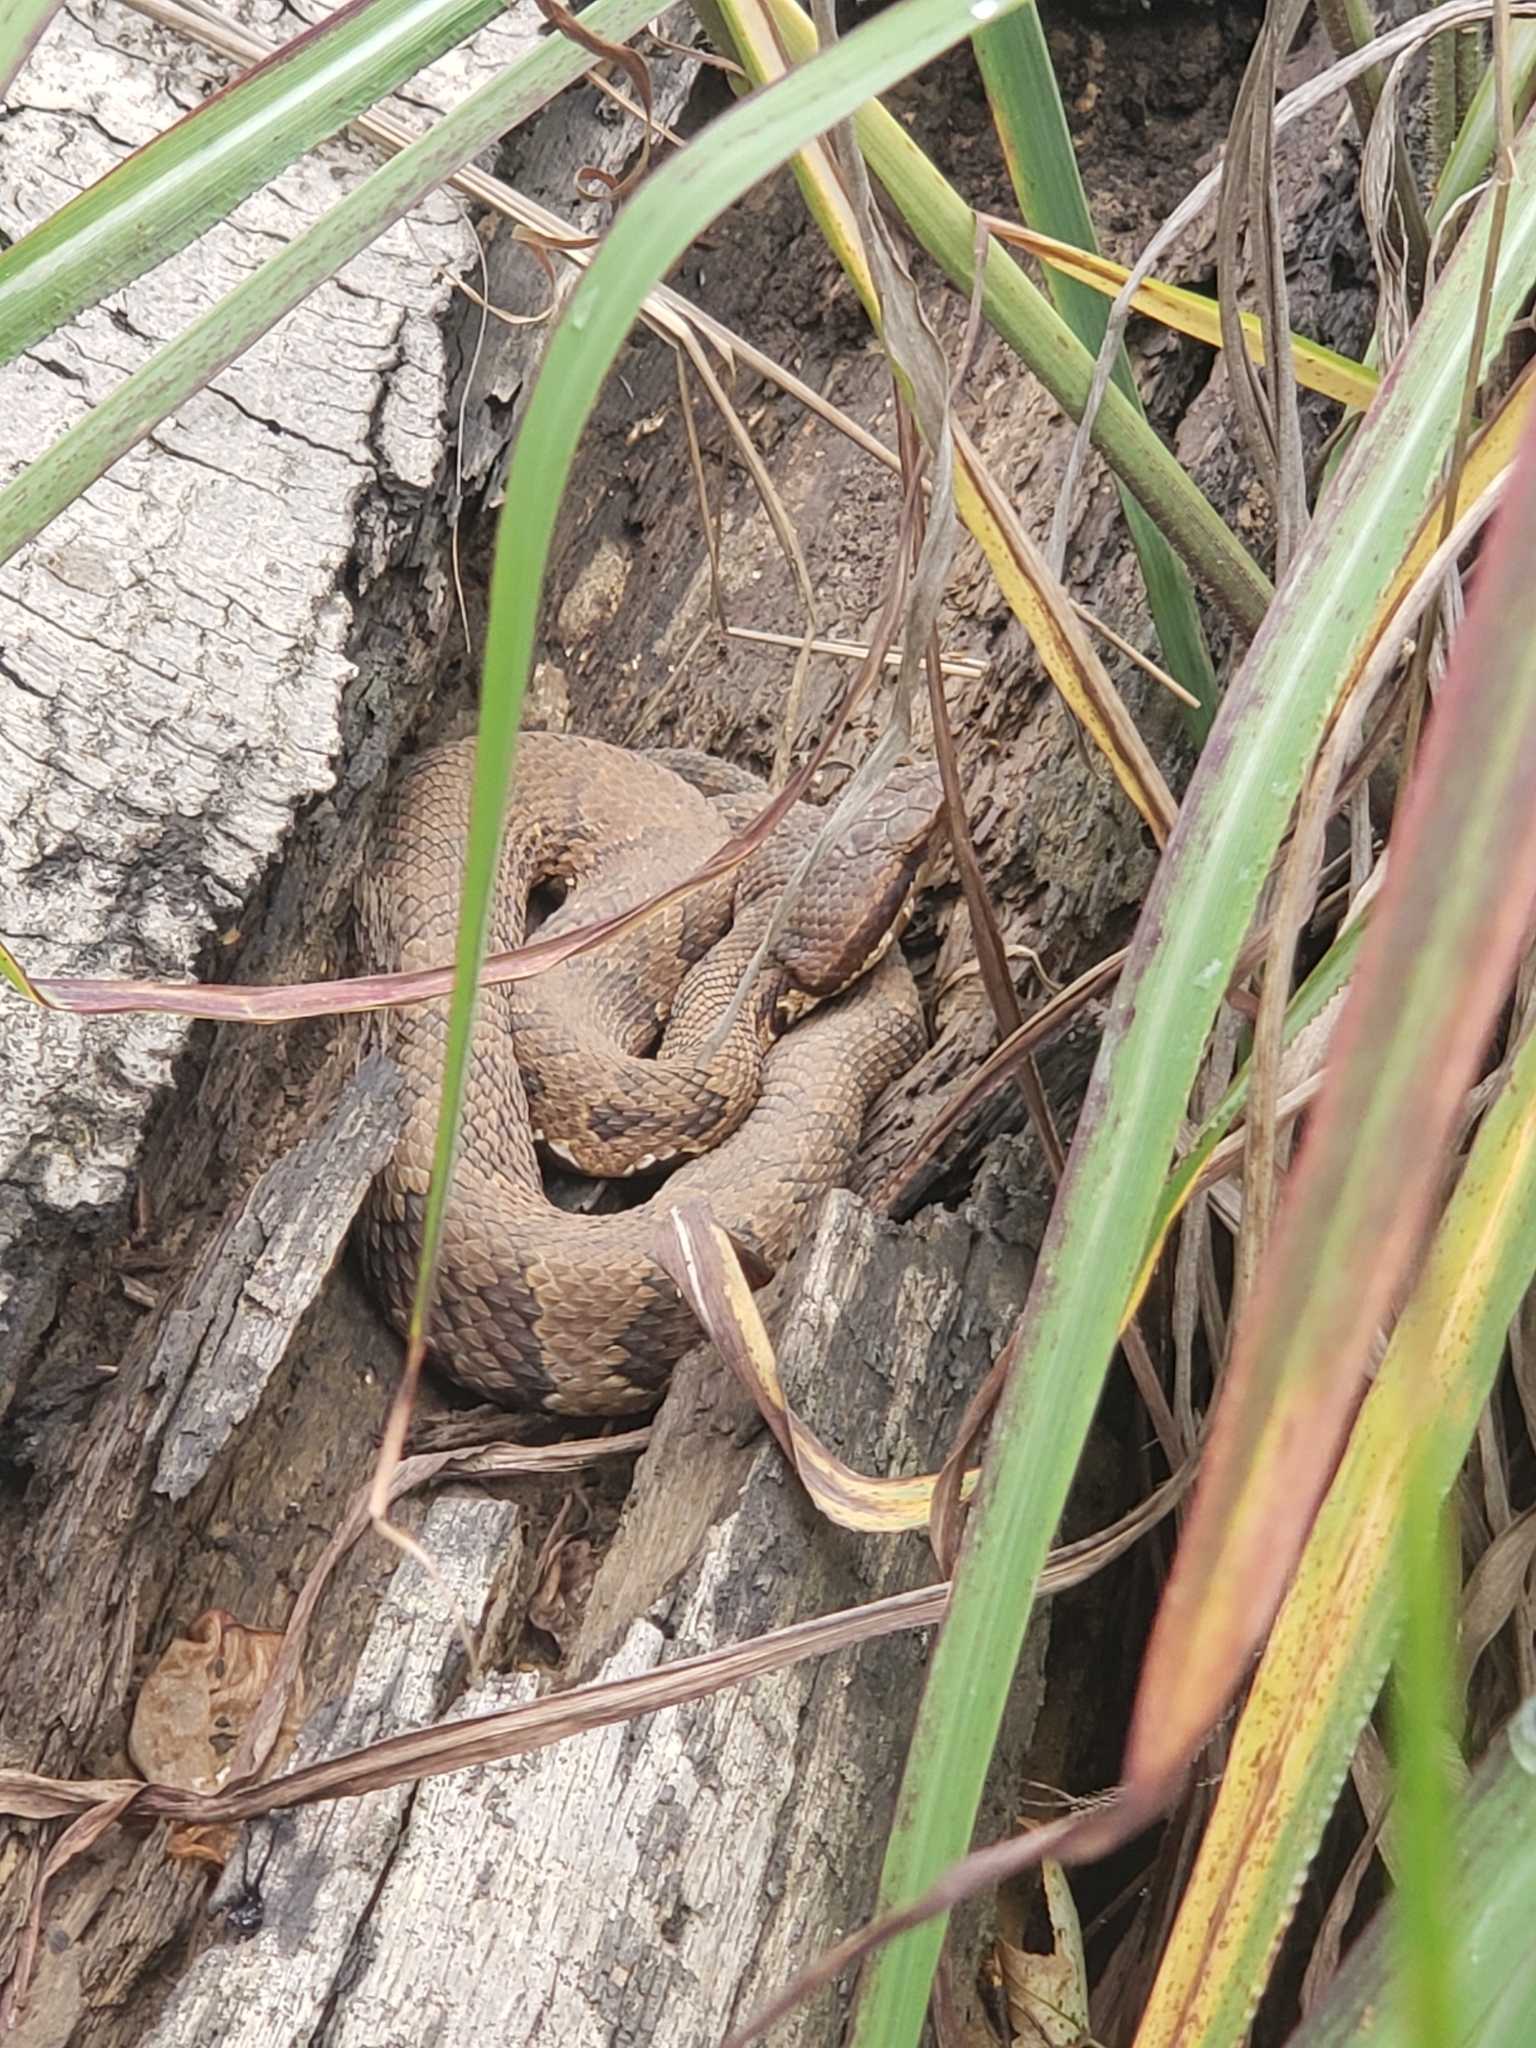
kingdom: Animalia
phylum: Chordata
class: Squamata
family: Viperidae
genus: Agkistrodon
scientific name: Agkistrodon piscivorus
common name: Cottonmouth
